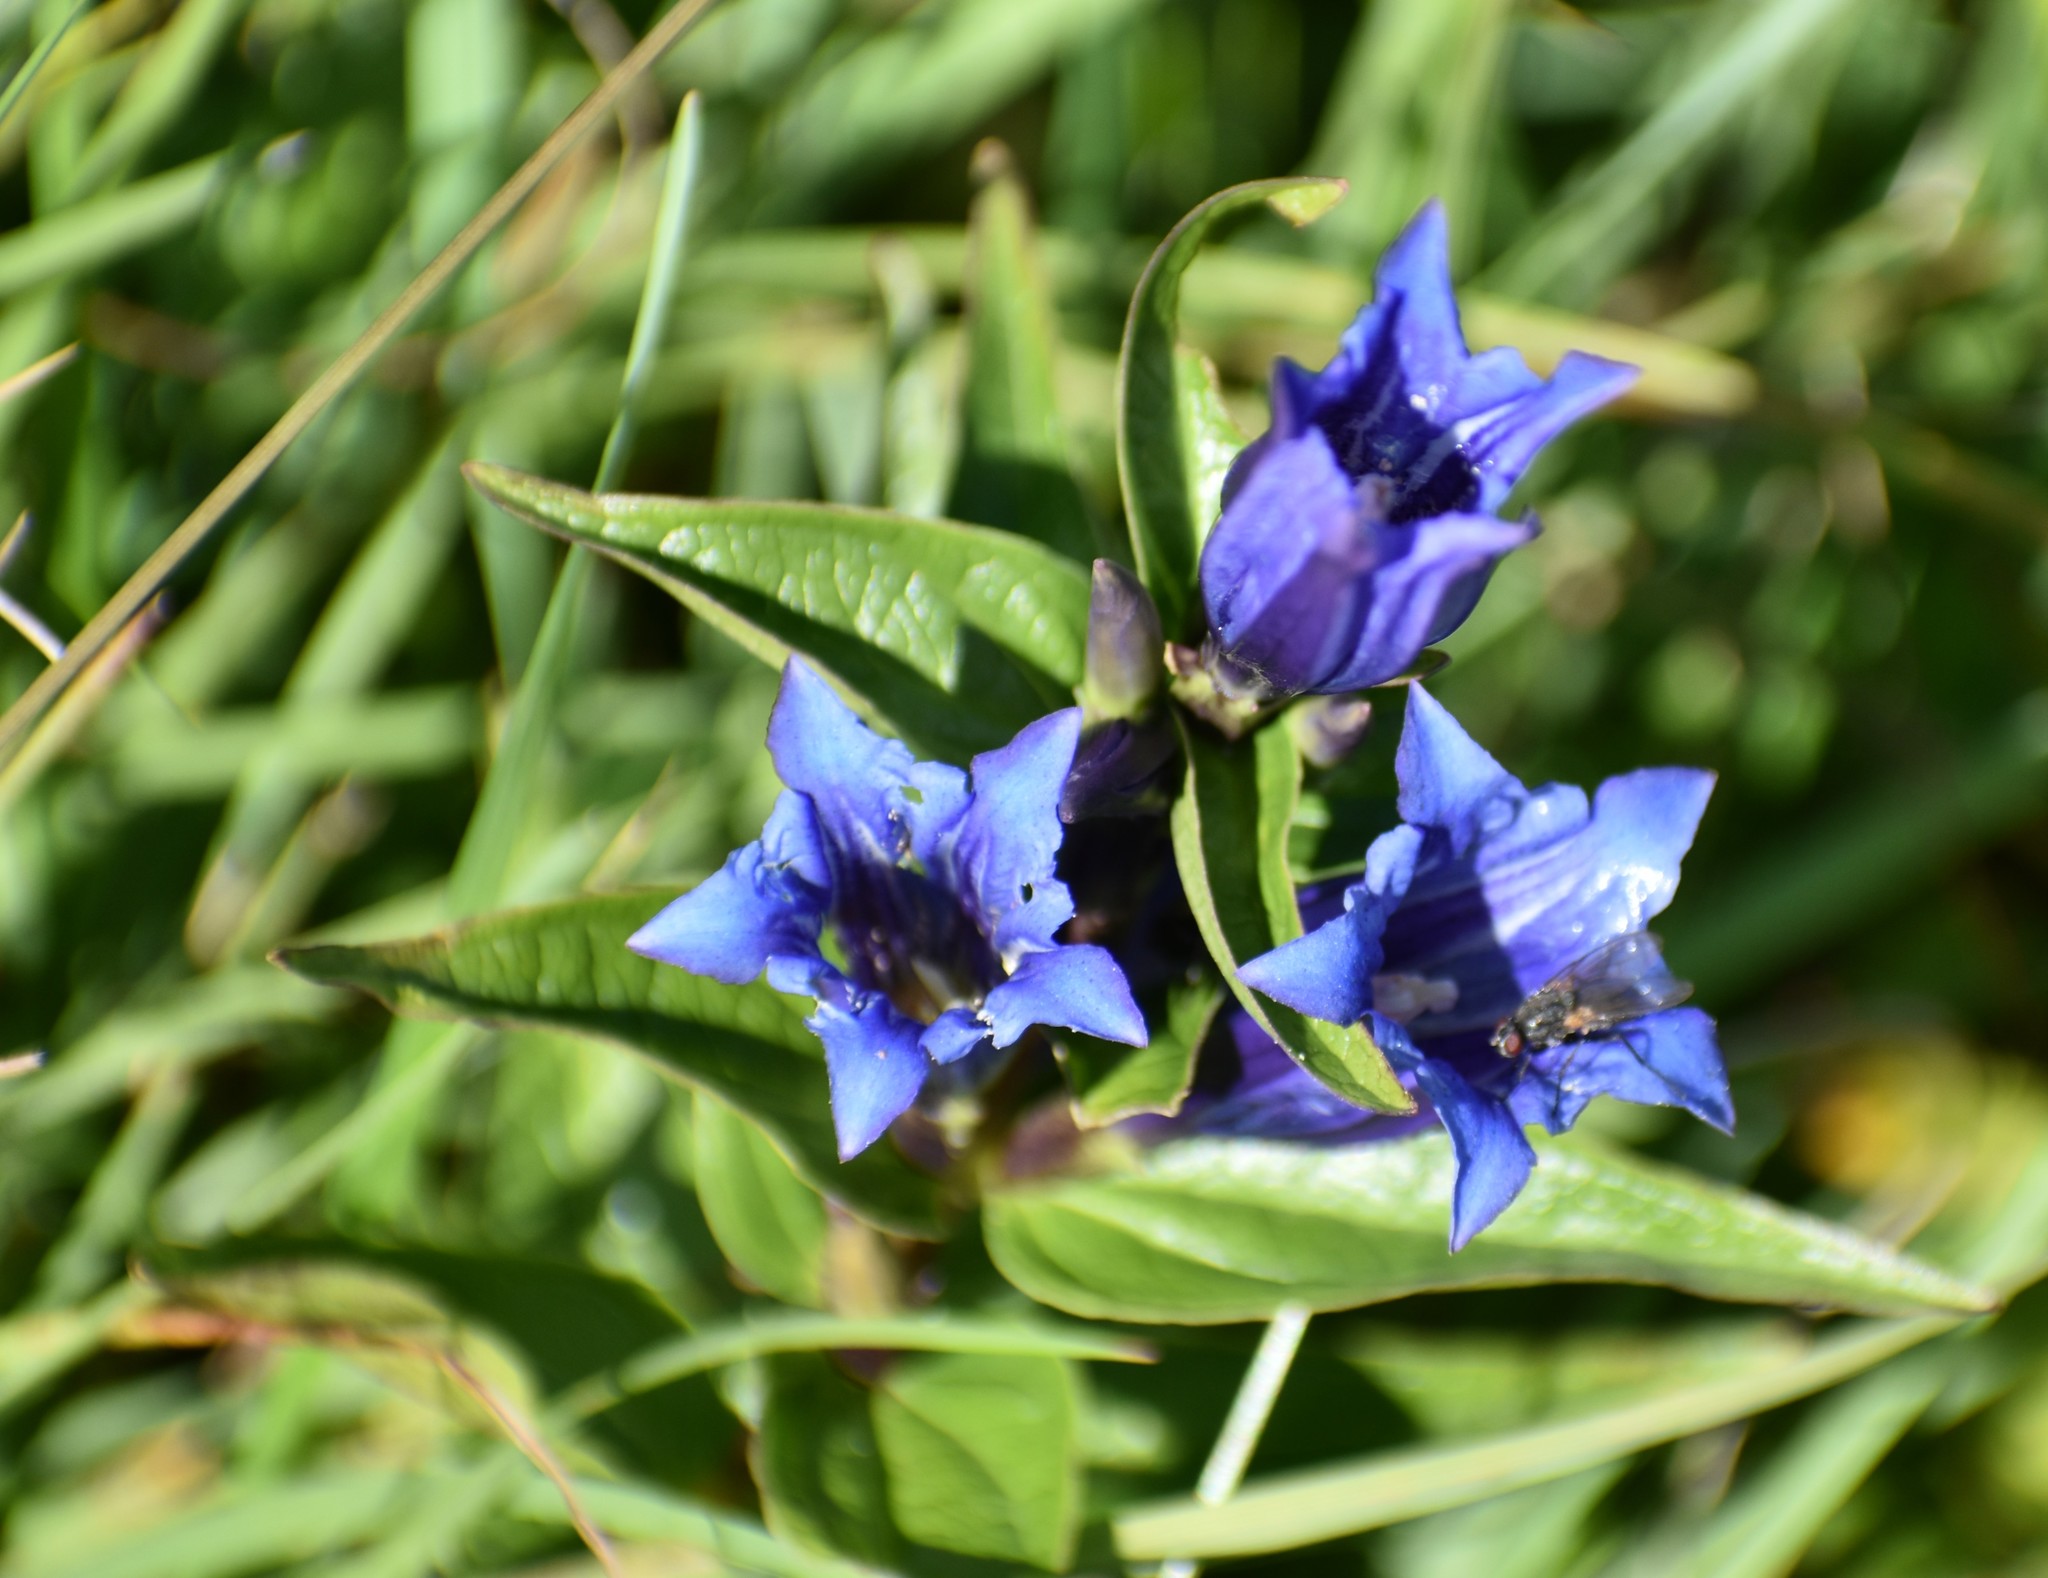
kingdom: Plantae
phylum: Tracheophyta
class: Magnoliopsida
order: Gentianales
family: Gentianaceae
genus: Gentiana
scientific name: Gentiana asclepiadea
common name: Willow gentian
